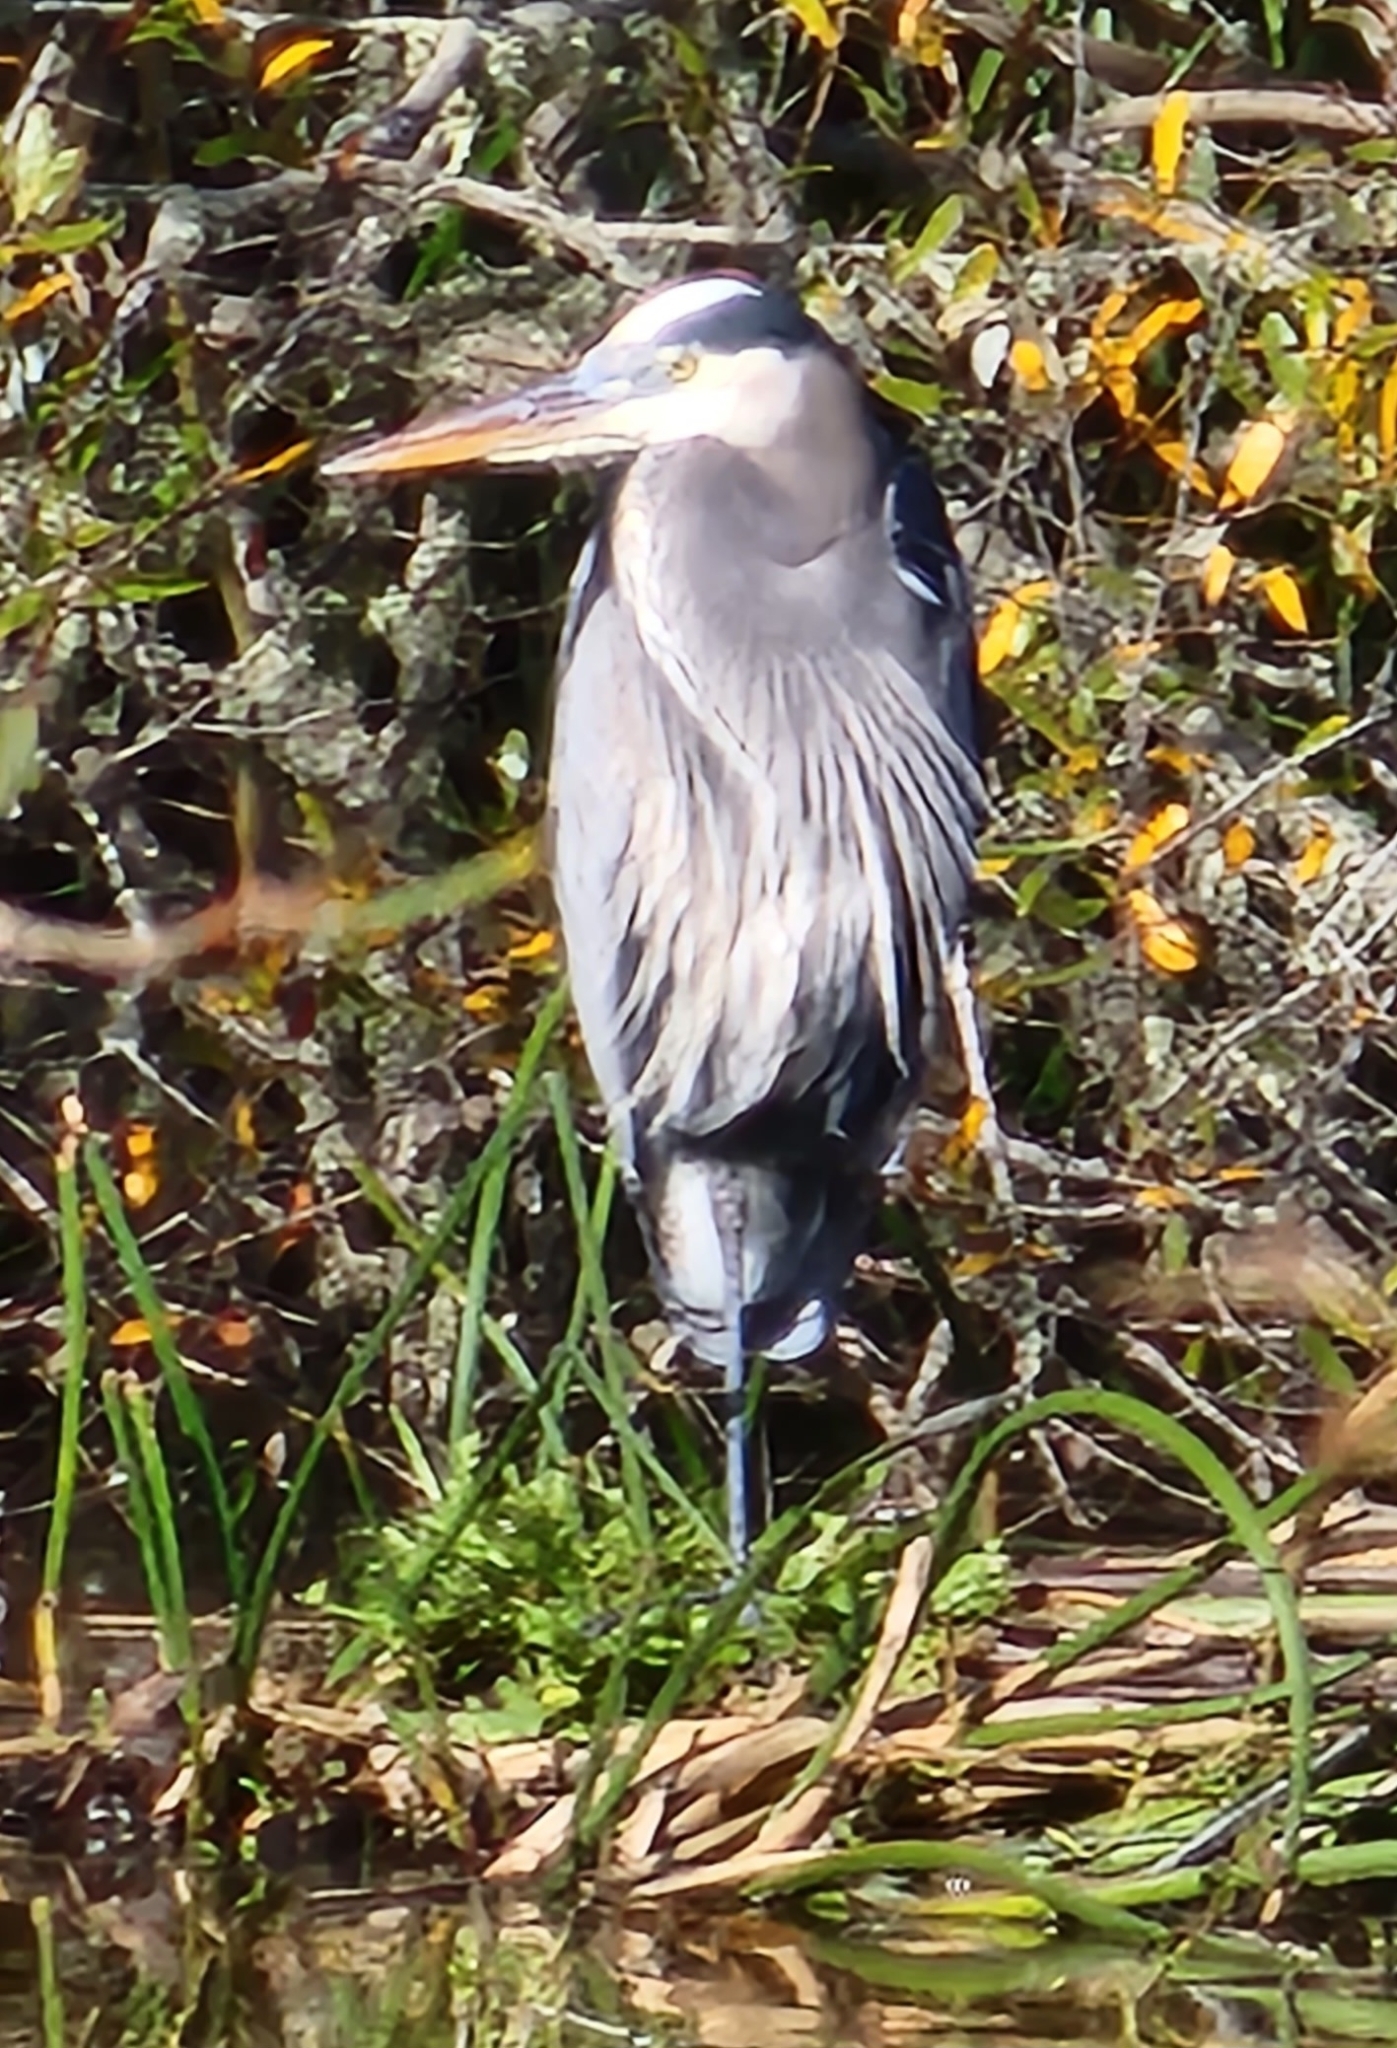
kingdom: Animalia
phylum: Chordata
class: Aves
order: Pelecaniformes
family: Ardeidae
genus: Ardea
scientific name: Ardea herodias
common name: Great blue heron
